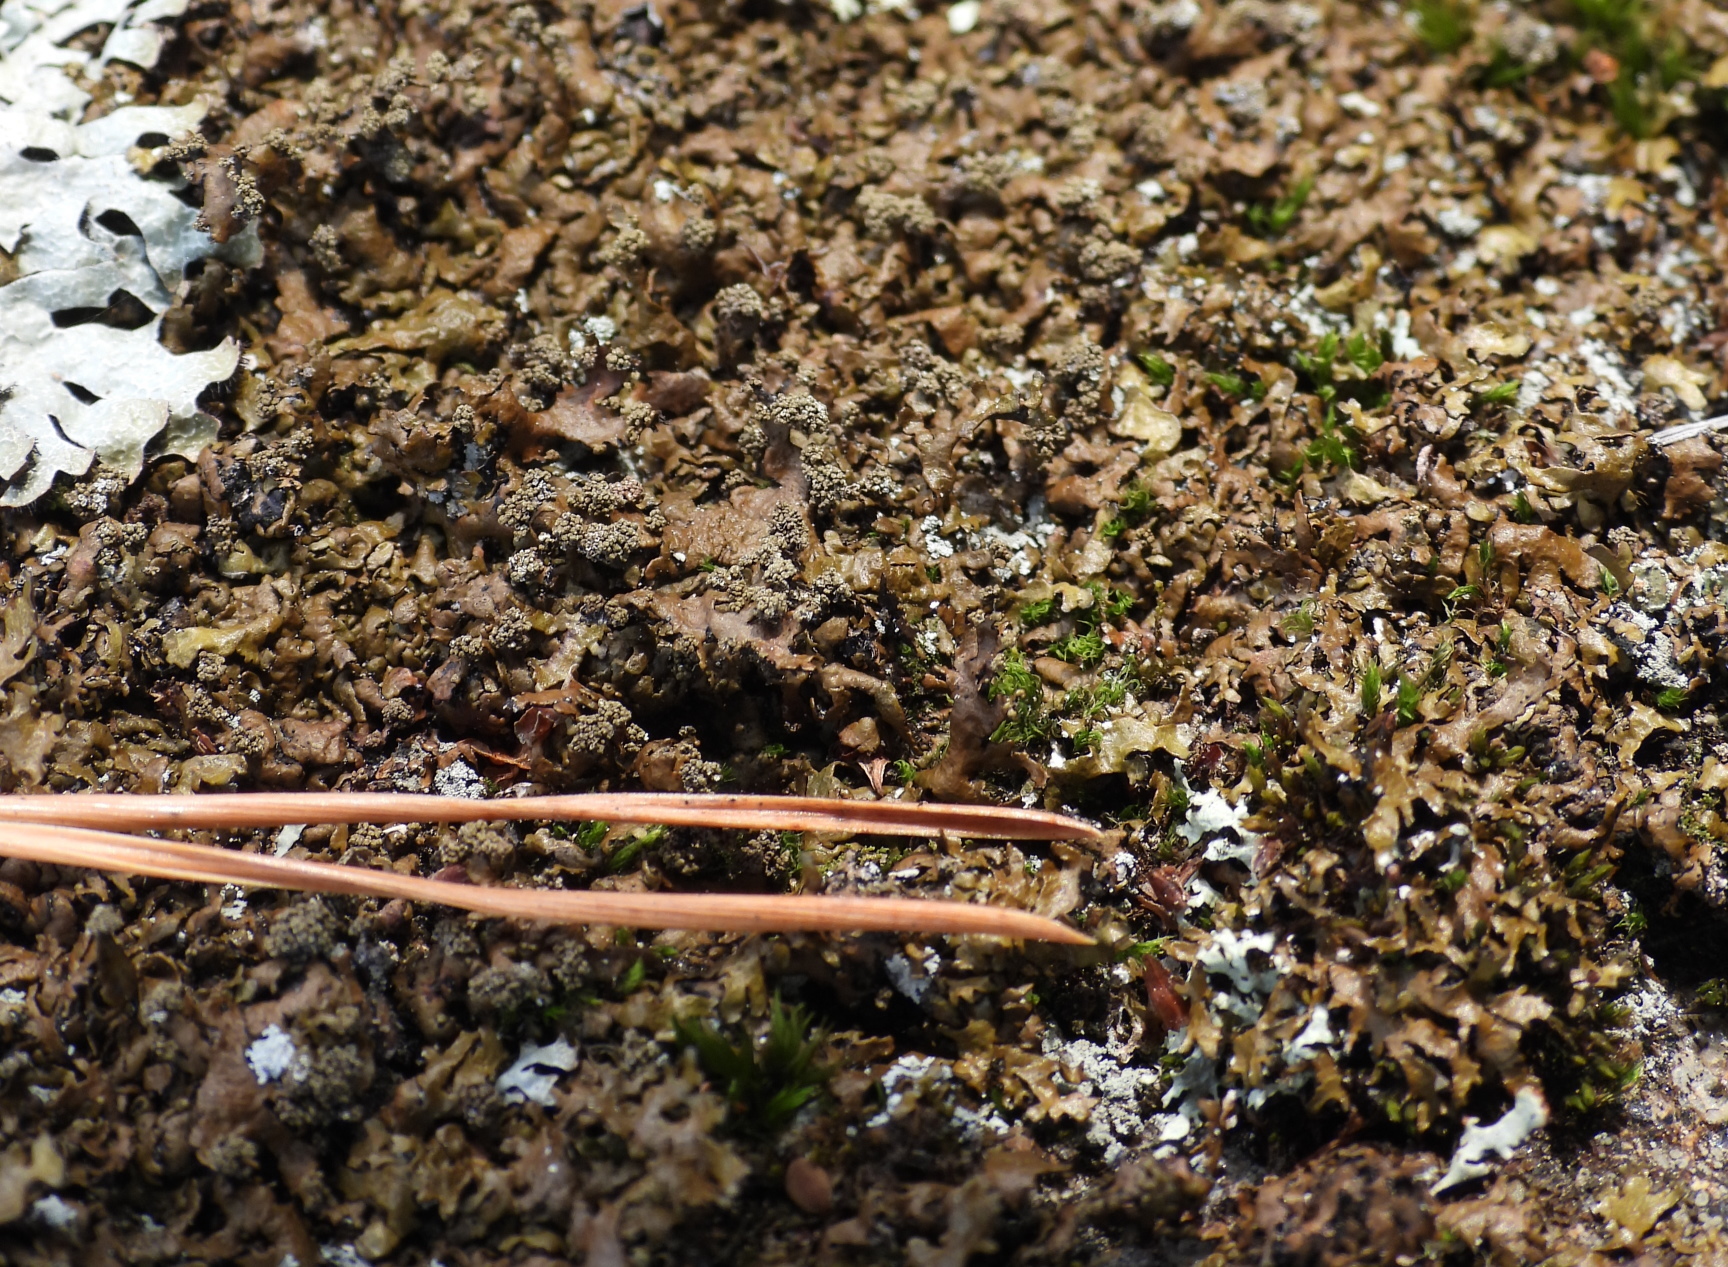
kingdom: Fungi
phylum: Ascomycota
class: Lecanoromycetes
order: Lecanorales
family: Parmeliaceae
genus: Xanthoparmelia
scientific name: Xanthoparmelia loxodes
